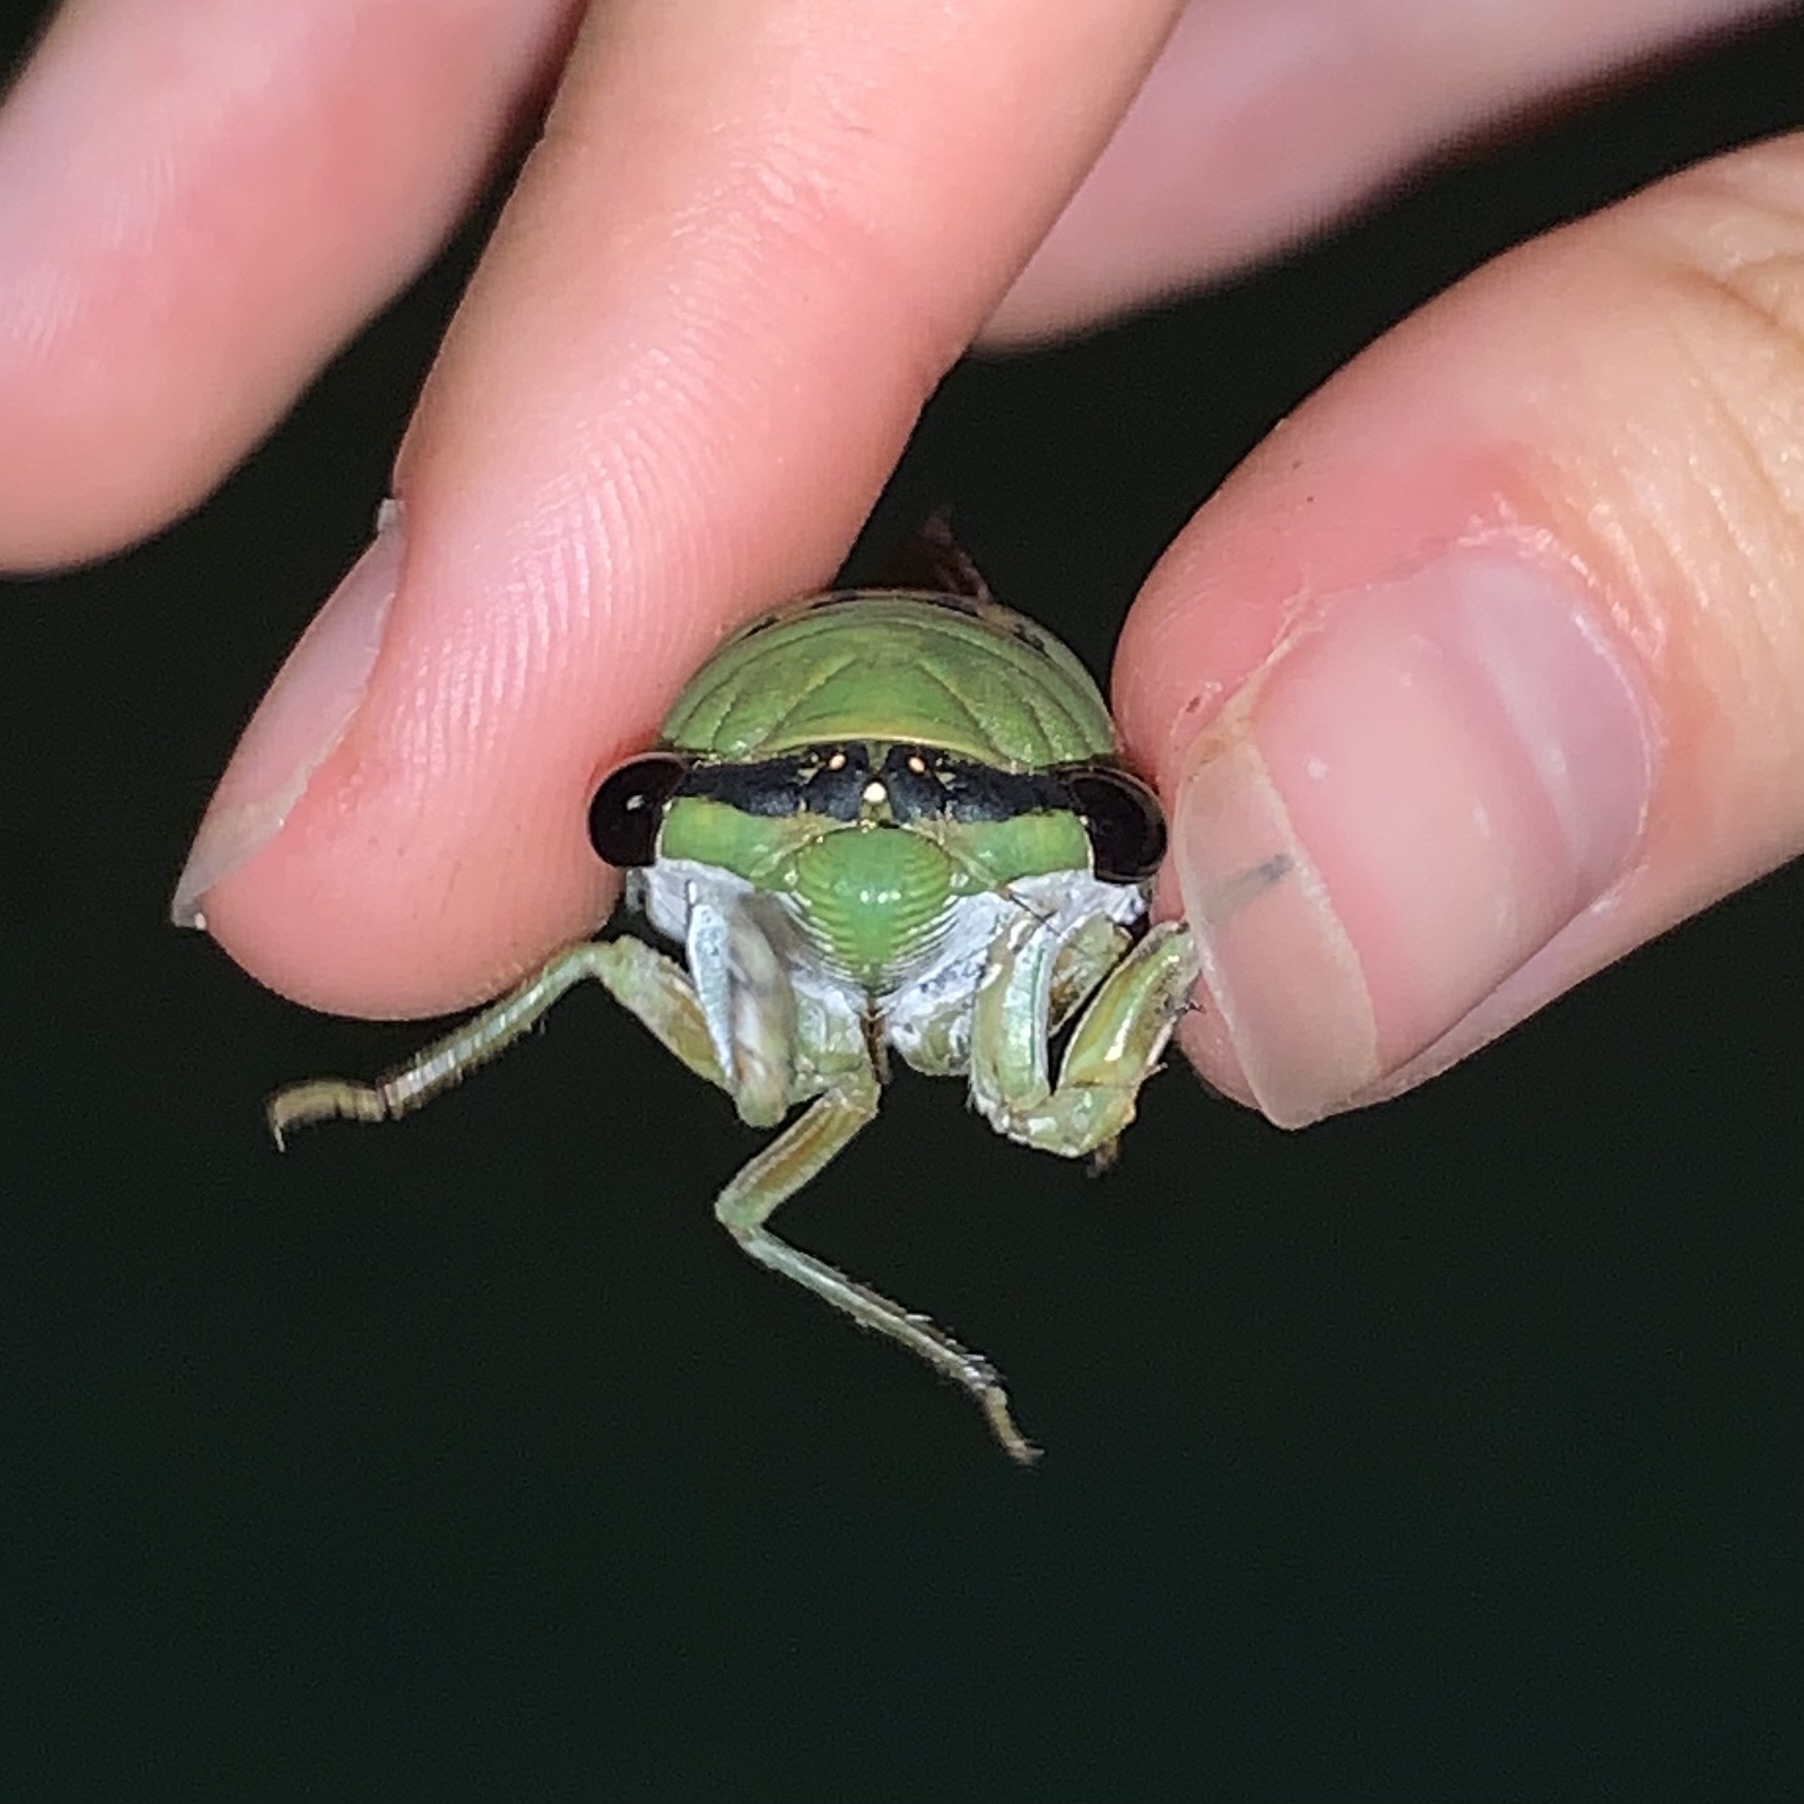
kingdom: Animalia
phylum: Arthropoda
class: Insecta
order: Hemiptera
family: Cicadidae
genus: Neotibicen
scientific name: Neotibicen superbus
